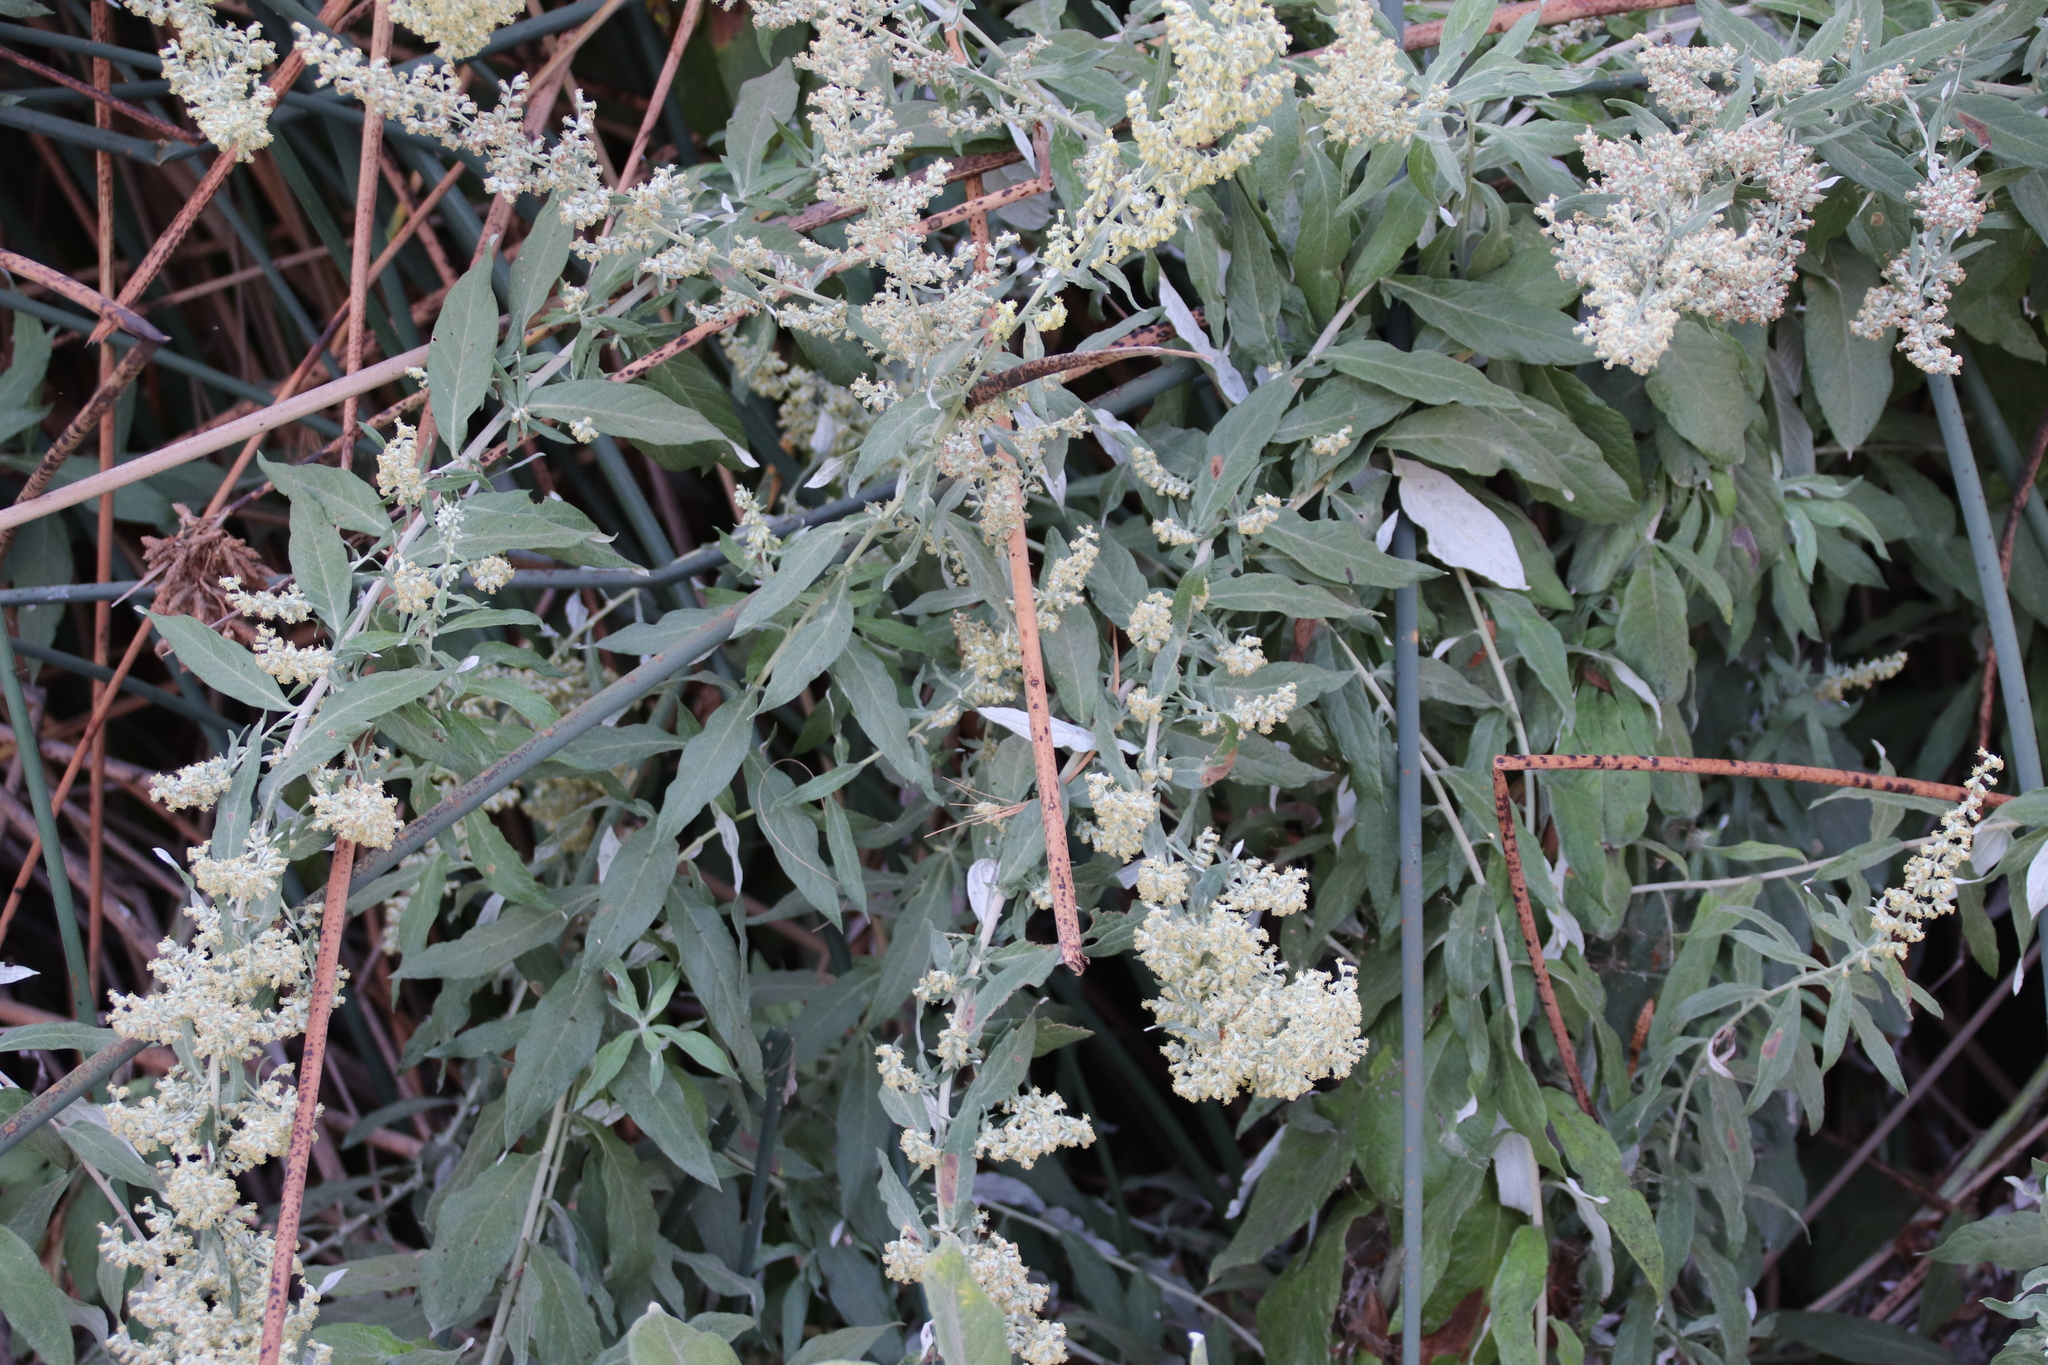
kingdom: Plantae
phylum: Tracheophyta
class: Magnoliopsida
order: Asterales
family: Asteraceae
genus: Artemisia
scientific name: Artemisia douglasiana
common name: Northwest mugwort
